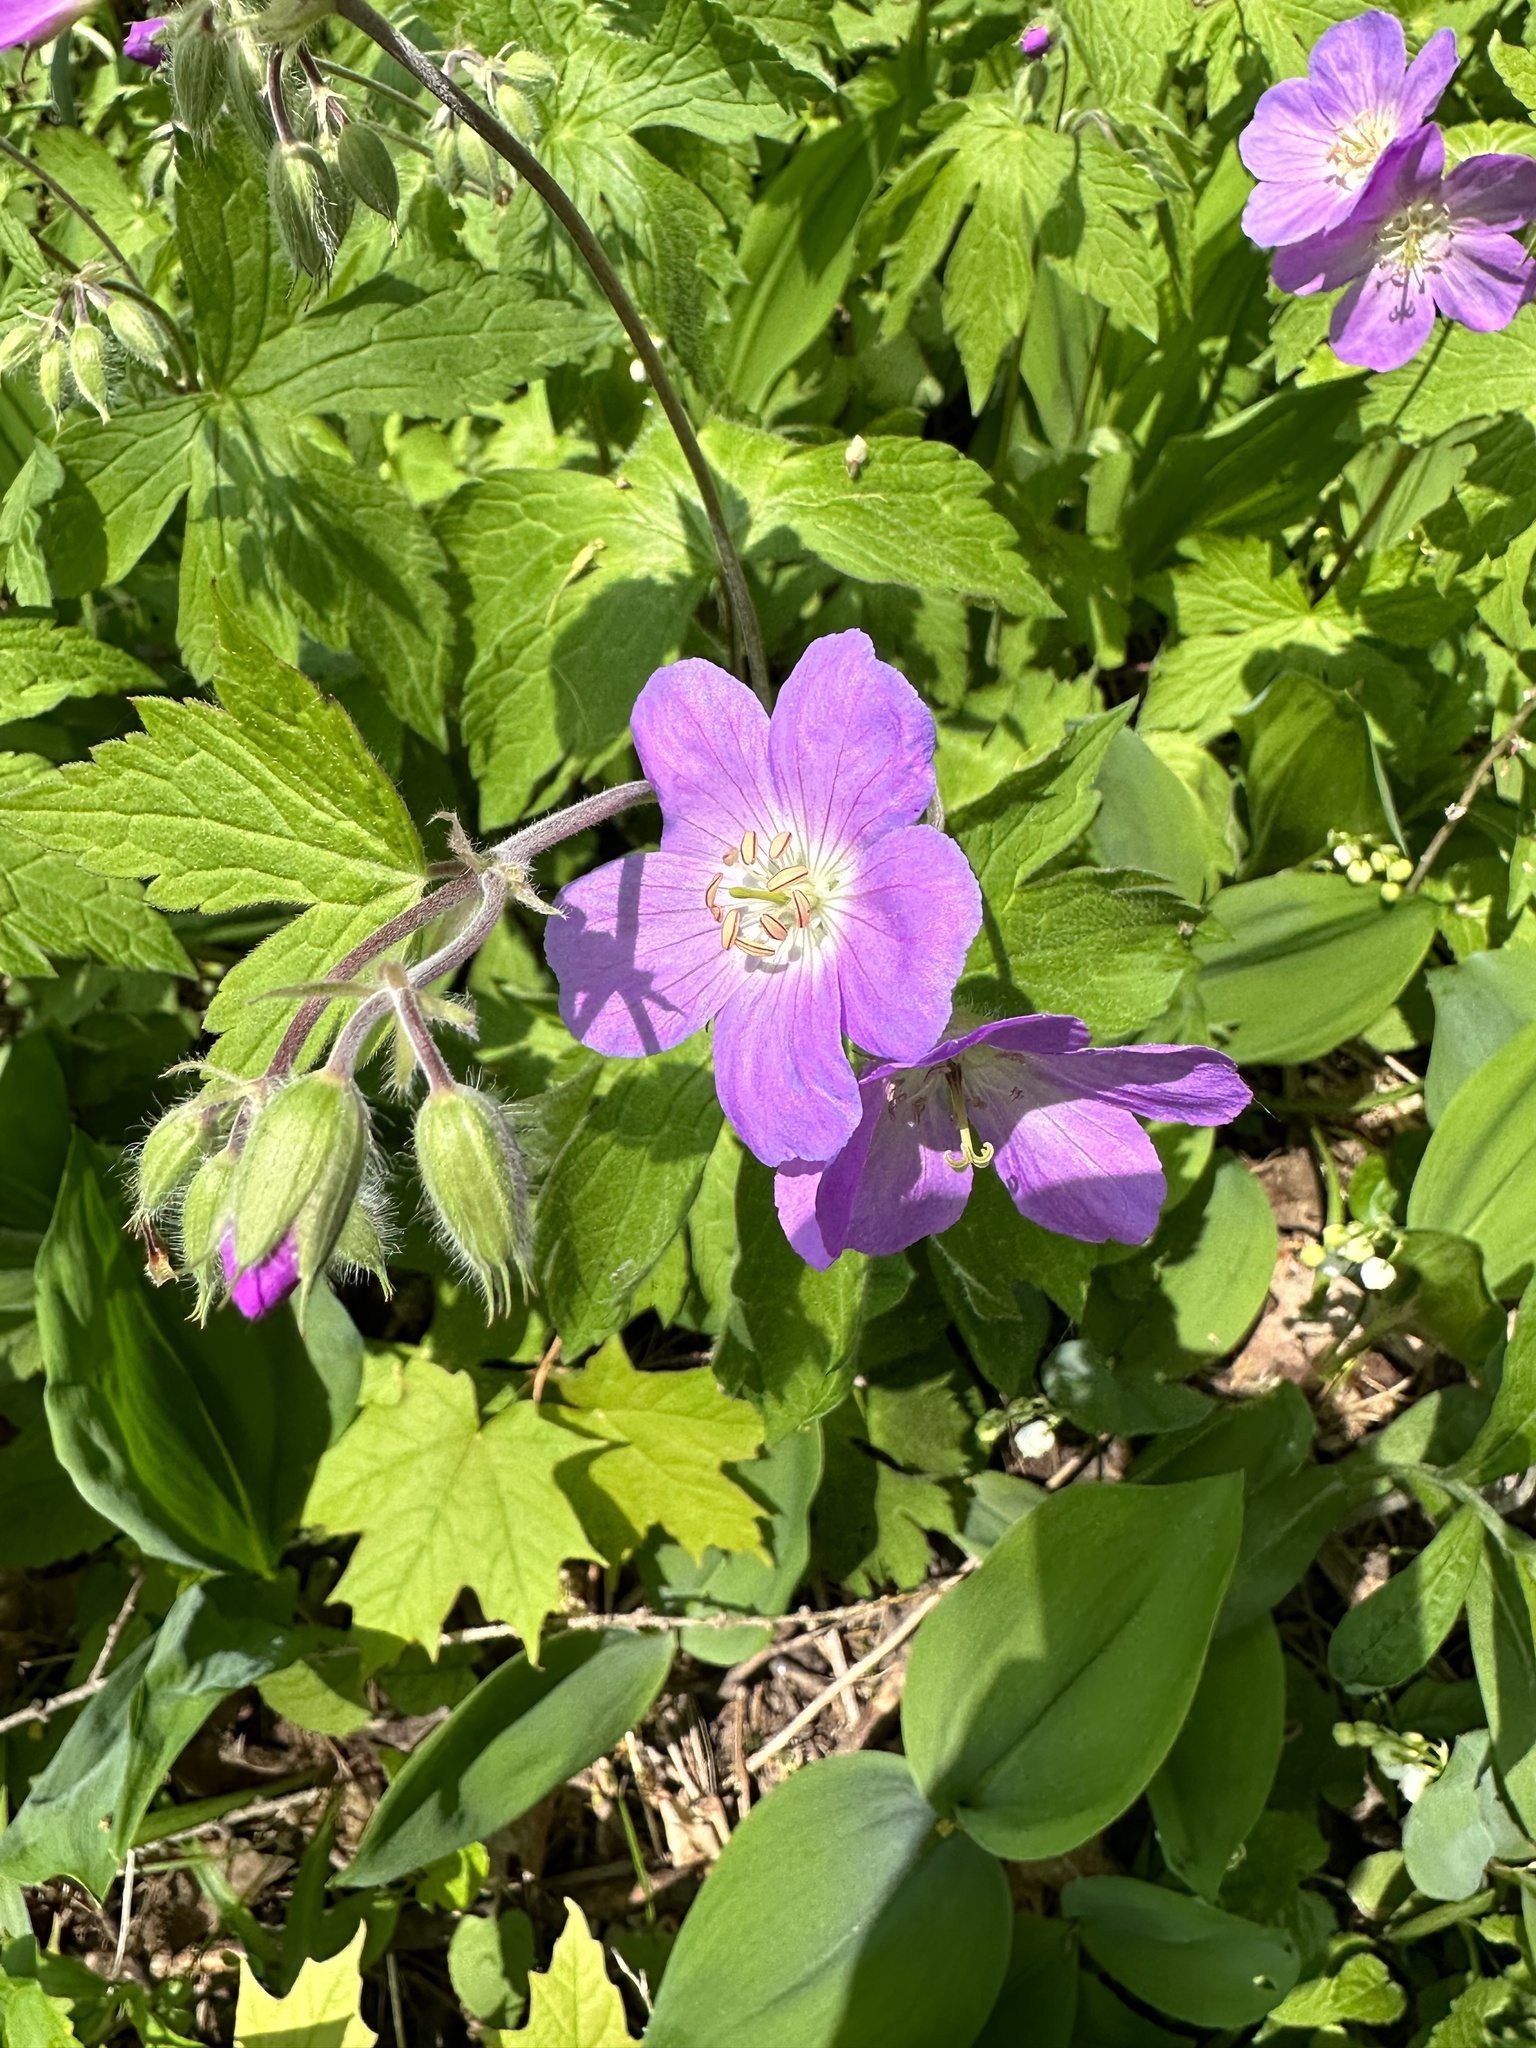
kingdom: Plantae
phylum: Tracheophyta
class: Magnoliopsida
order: Geraniales
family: Geraniaceae
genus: Geranium
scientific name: Geranium maculatum
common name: Spotted geranium
